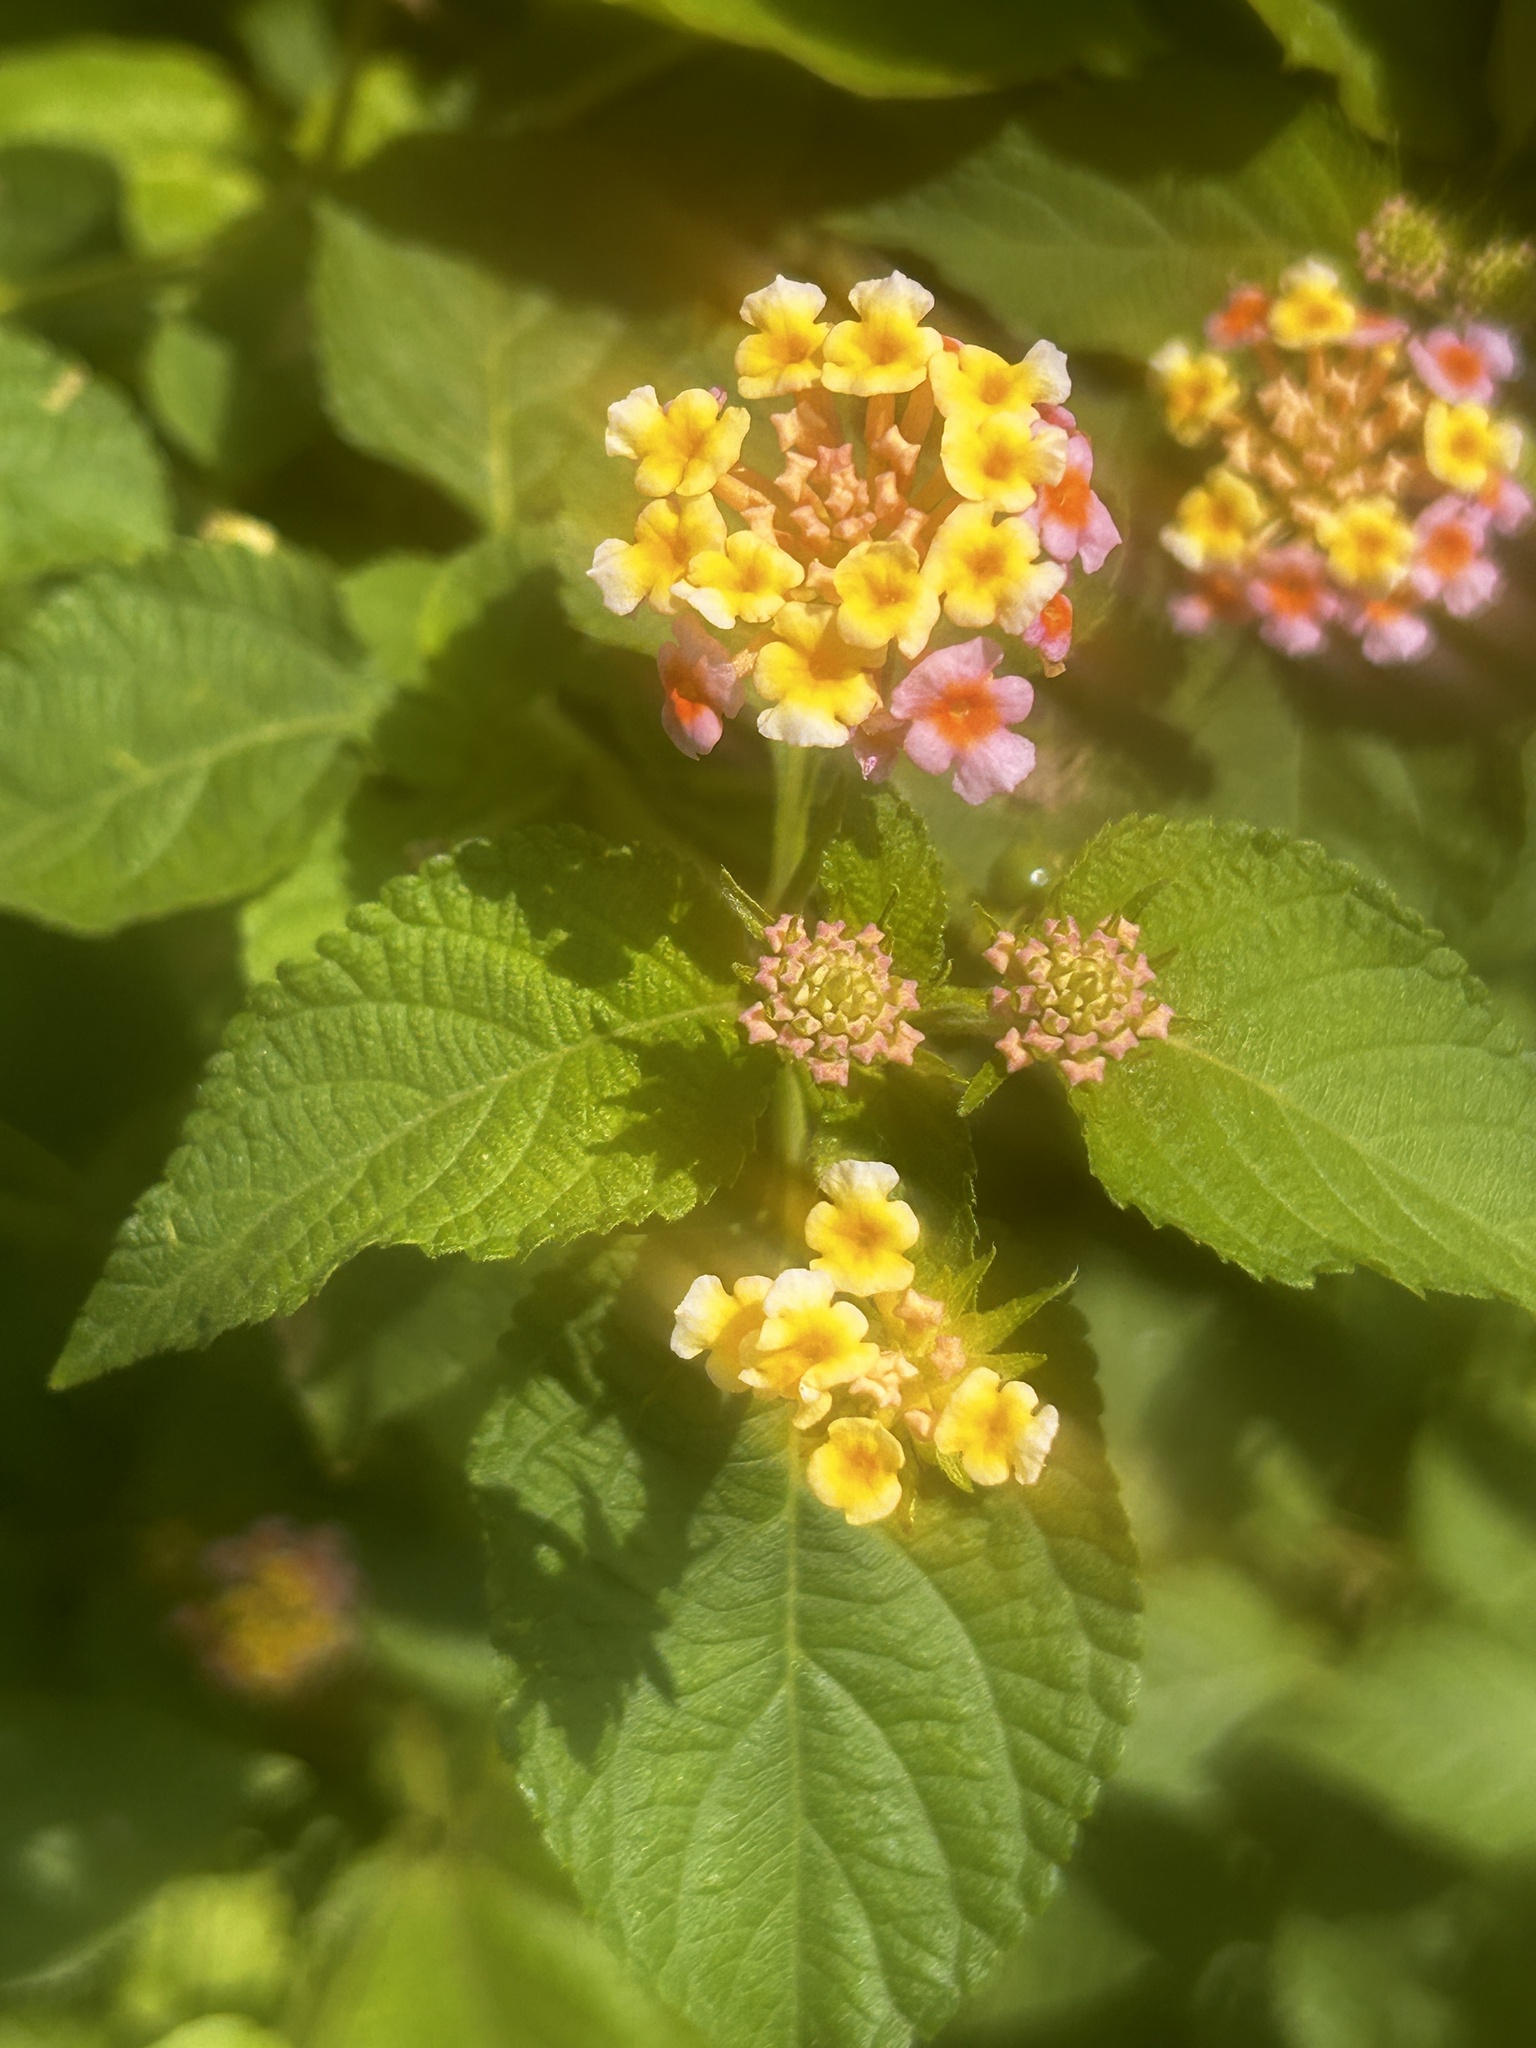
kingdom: Plantae
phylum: Tracheophyta
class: Magnoliopsida
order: Lamiales
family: Verbenaceae
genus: Lantana
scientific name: Lantana camara
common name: Lantana
